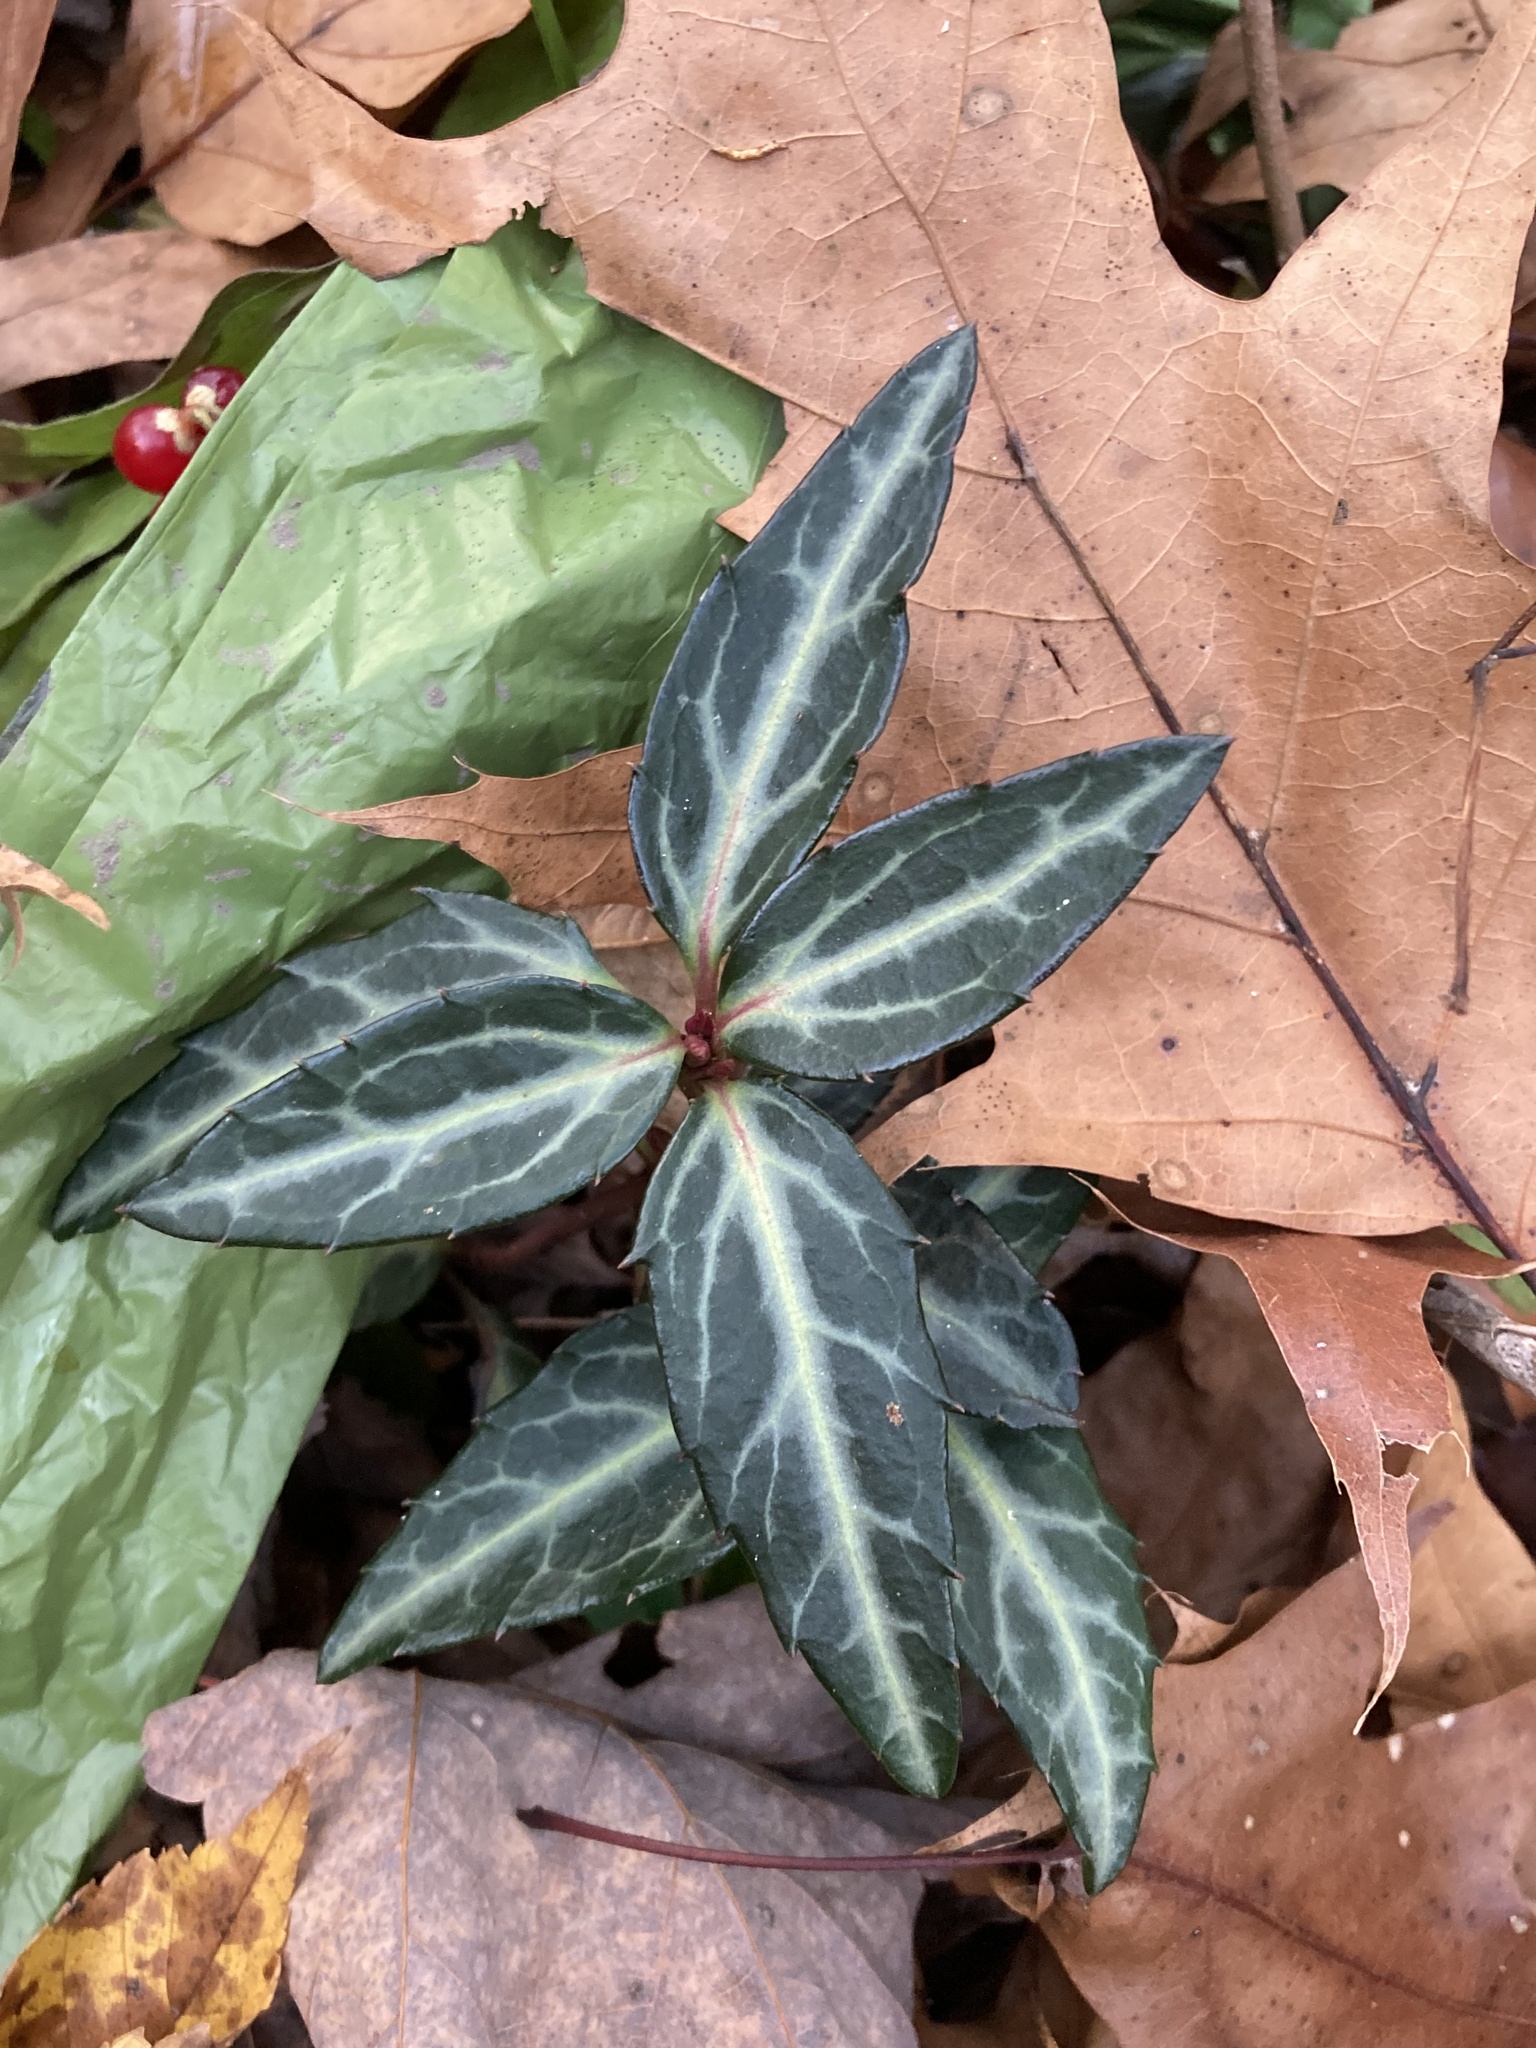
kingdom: Plantae
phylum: Tracheophyta
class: Magnoliopsida
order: Ericales
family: Ericaceae
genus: Chimaphila
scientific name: Chimaphila maculata
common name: Spotted pipsissewa
